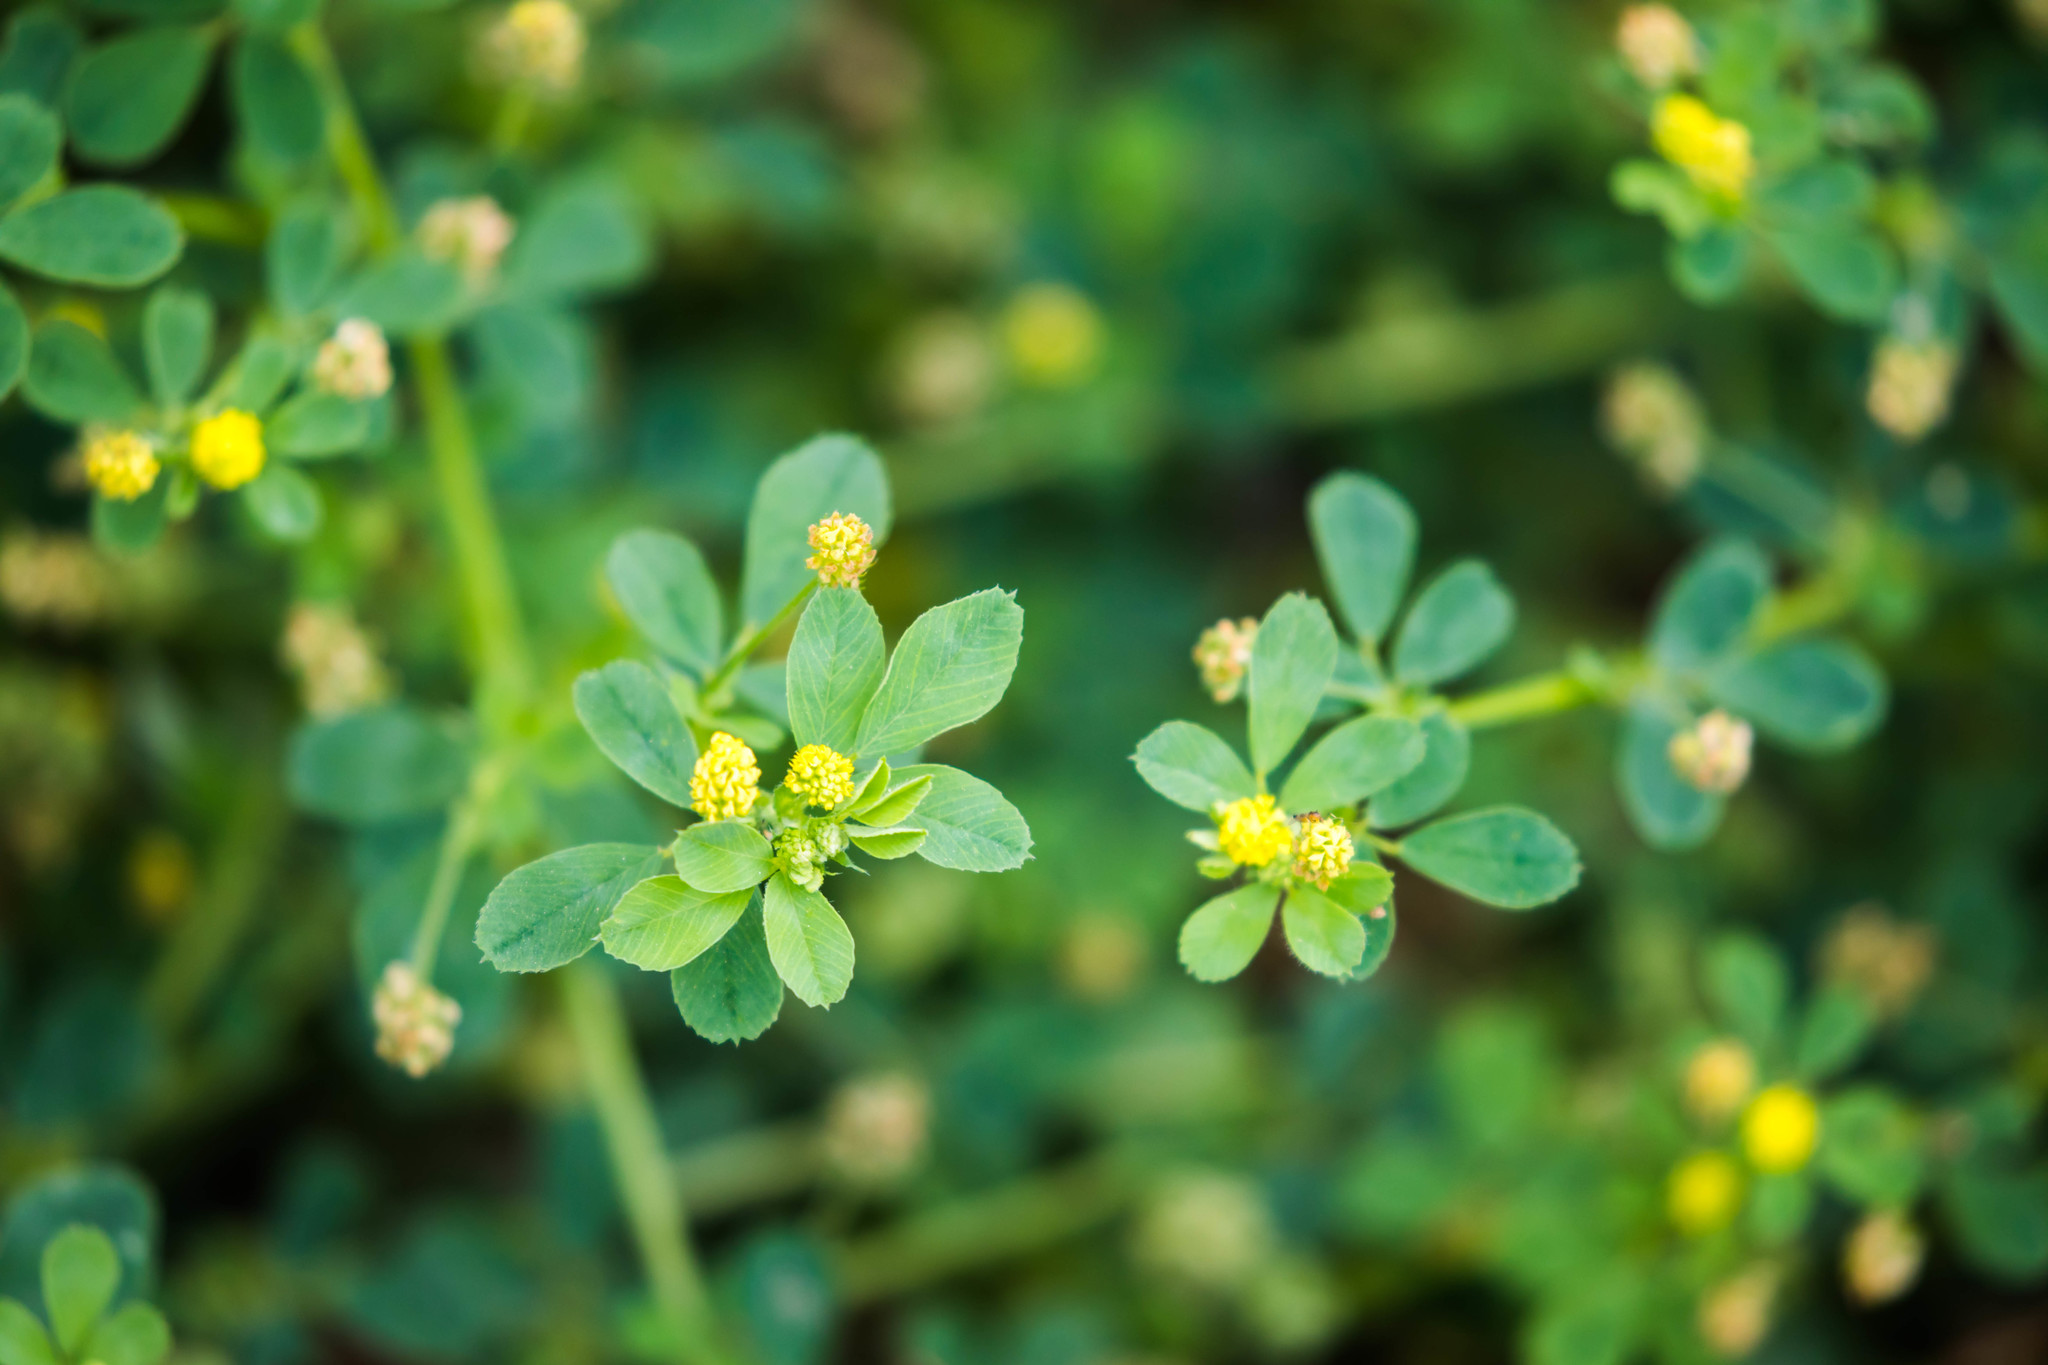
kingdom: Plantae
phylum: Tracheophyta
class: Magnoliopsida
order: Fabales
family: Fabaceae
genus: Medicago
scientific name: Medicago lupulina
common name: Black medick
